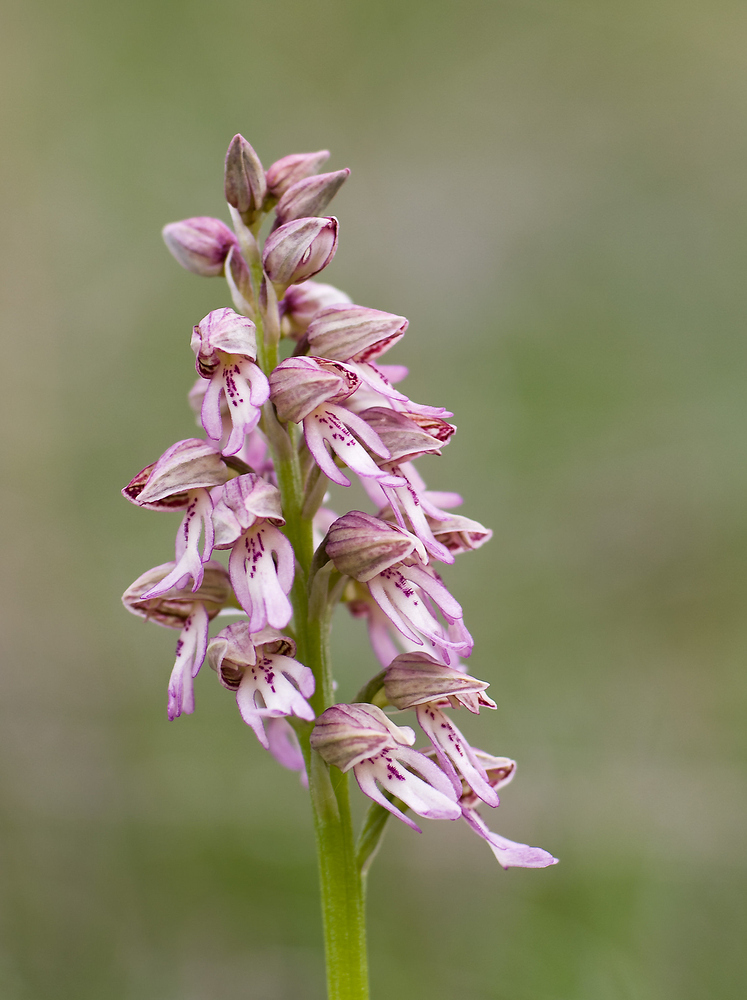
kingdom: Plantae
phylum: Tracheophyta
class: Liliopsida
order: Asparagales
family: Orchidaceae
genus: Orchis
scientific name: Orchis hybrida
